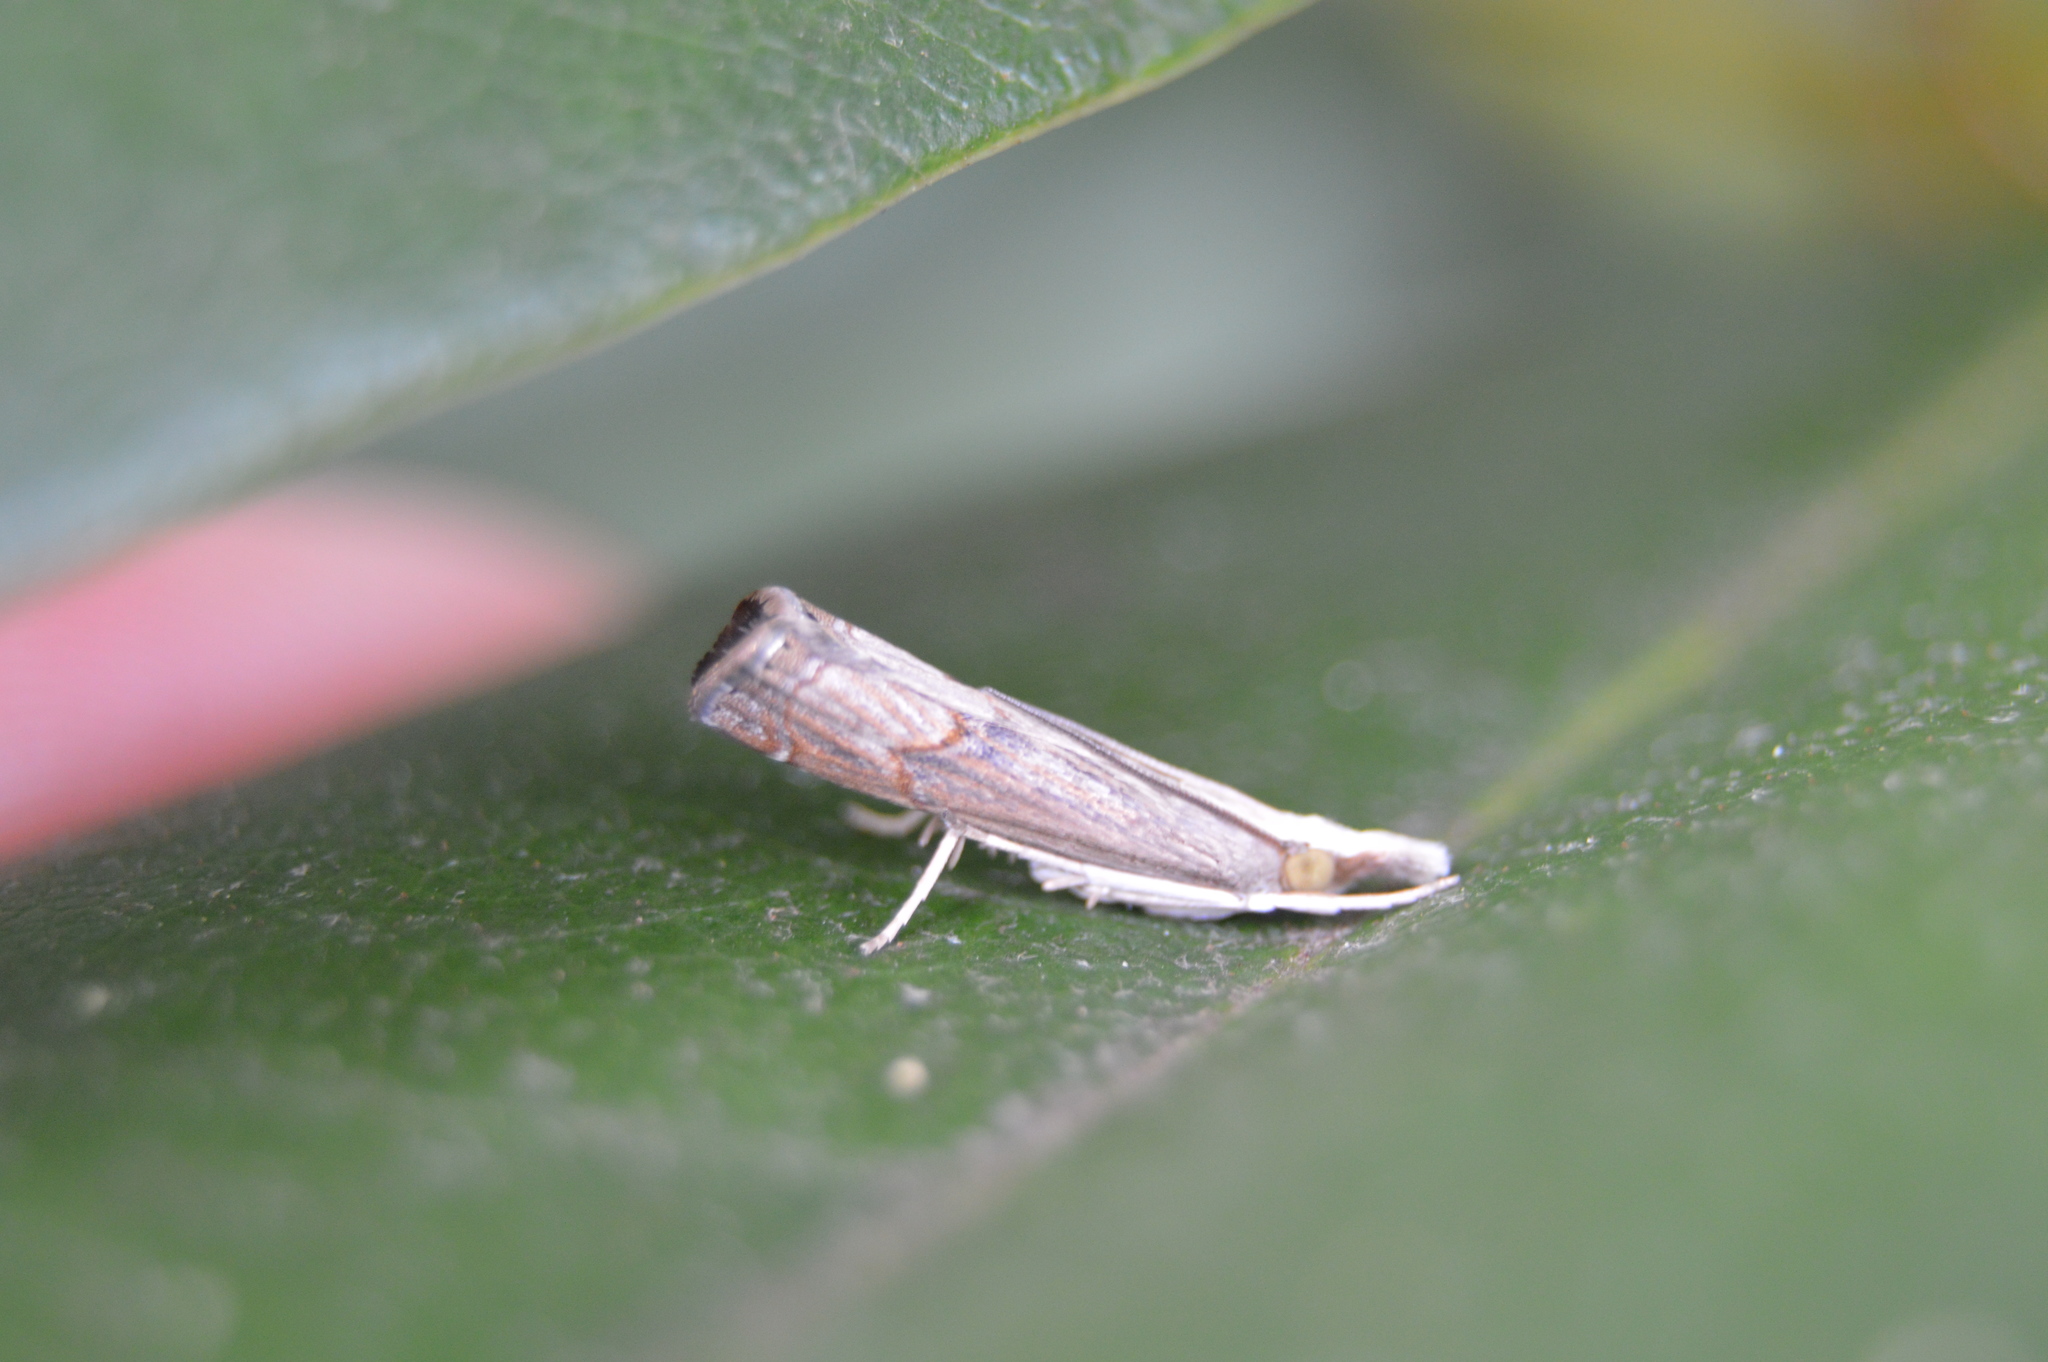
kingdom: Animalia
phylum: Arthropoda
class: Insecta
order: Lepidoptera
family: Crambidae
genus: Parapediasia
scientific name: Parapediasia teterellus
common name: Bluegrass webworm moth
